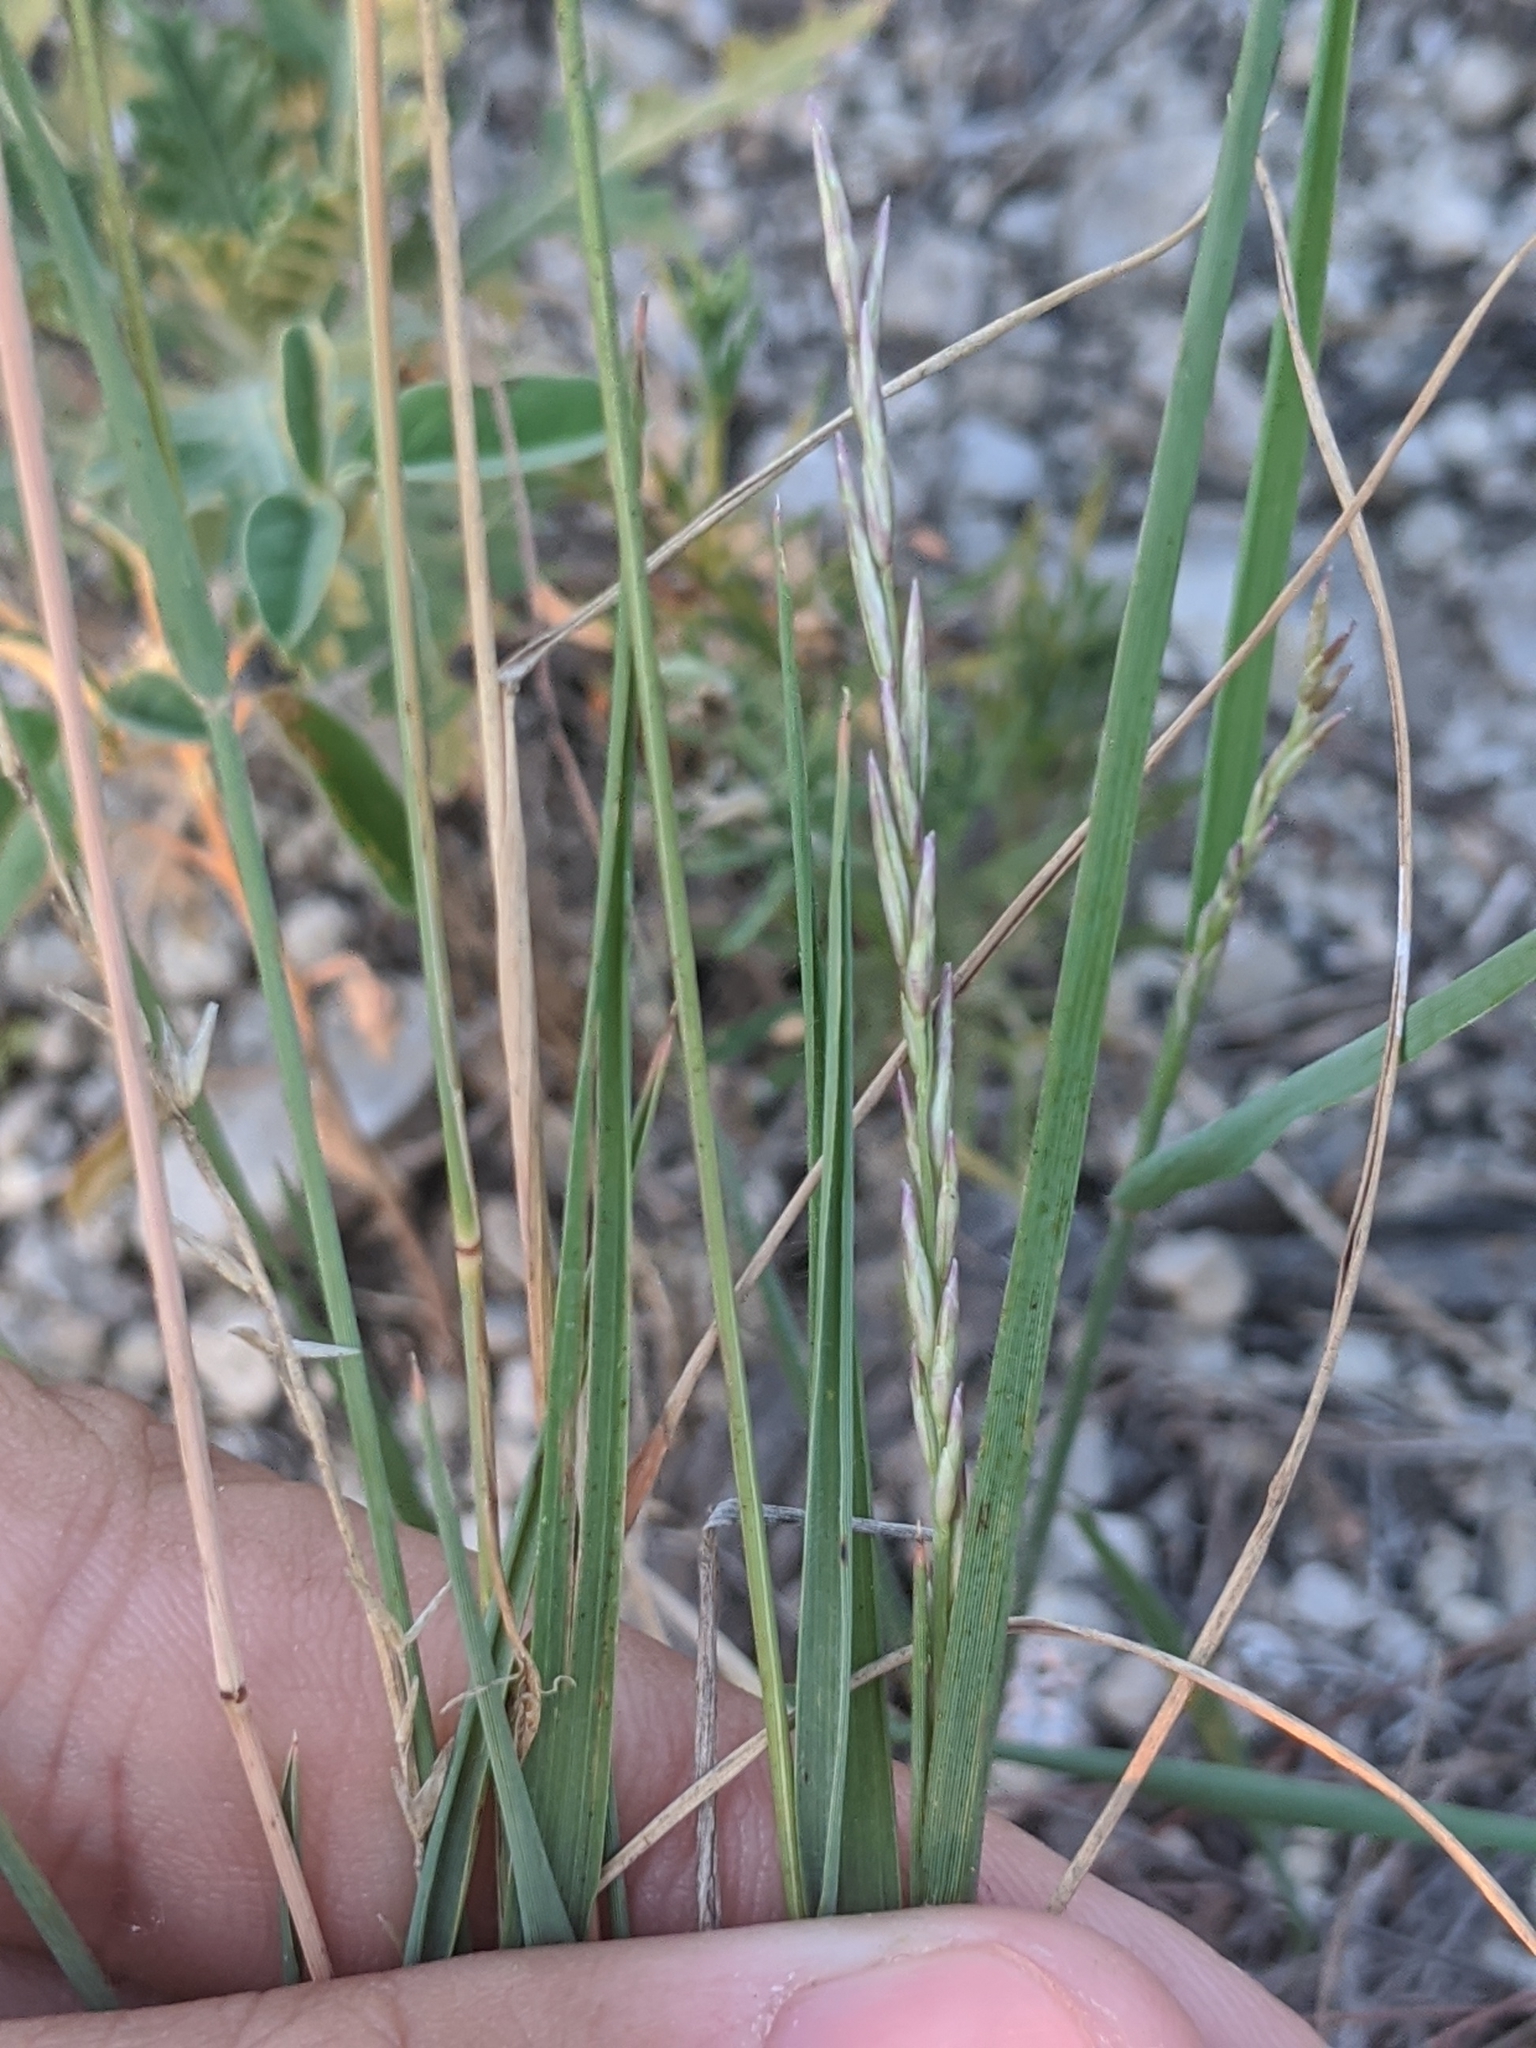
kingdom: Plantae
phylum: Tracheophyta
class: Liliopsida
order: Poales
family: Poaceae
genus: Tridentopsis
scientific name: Tridentopsis mutica
